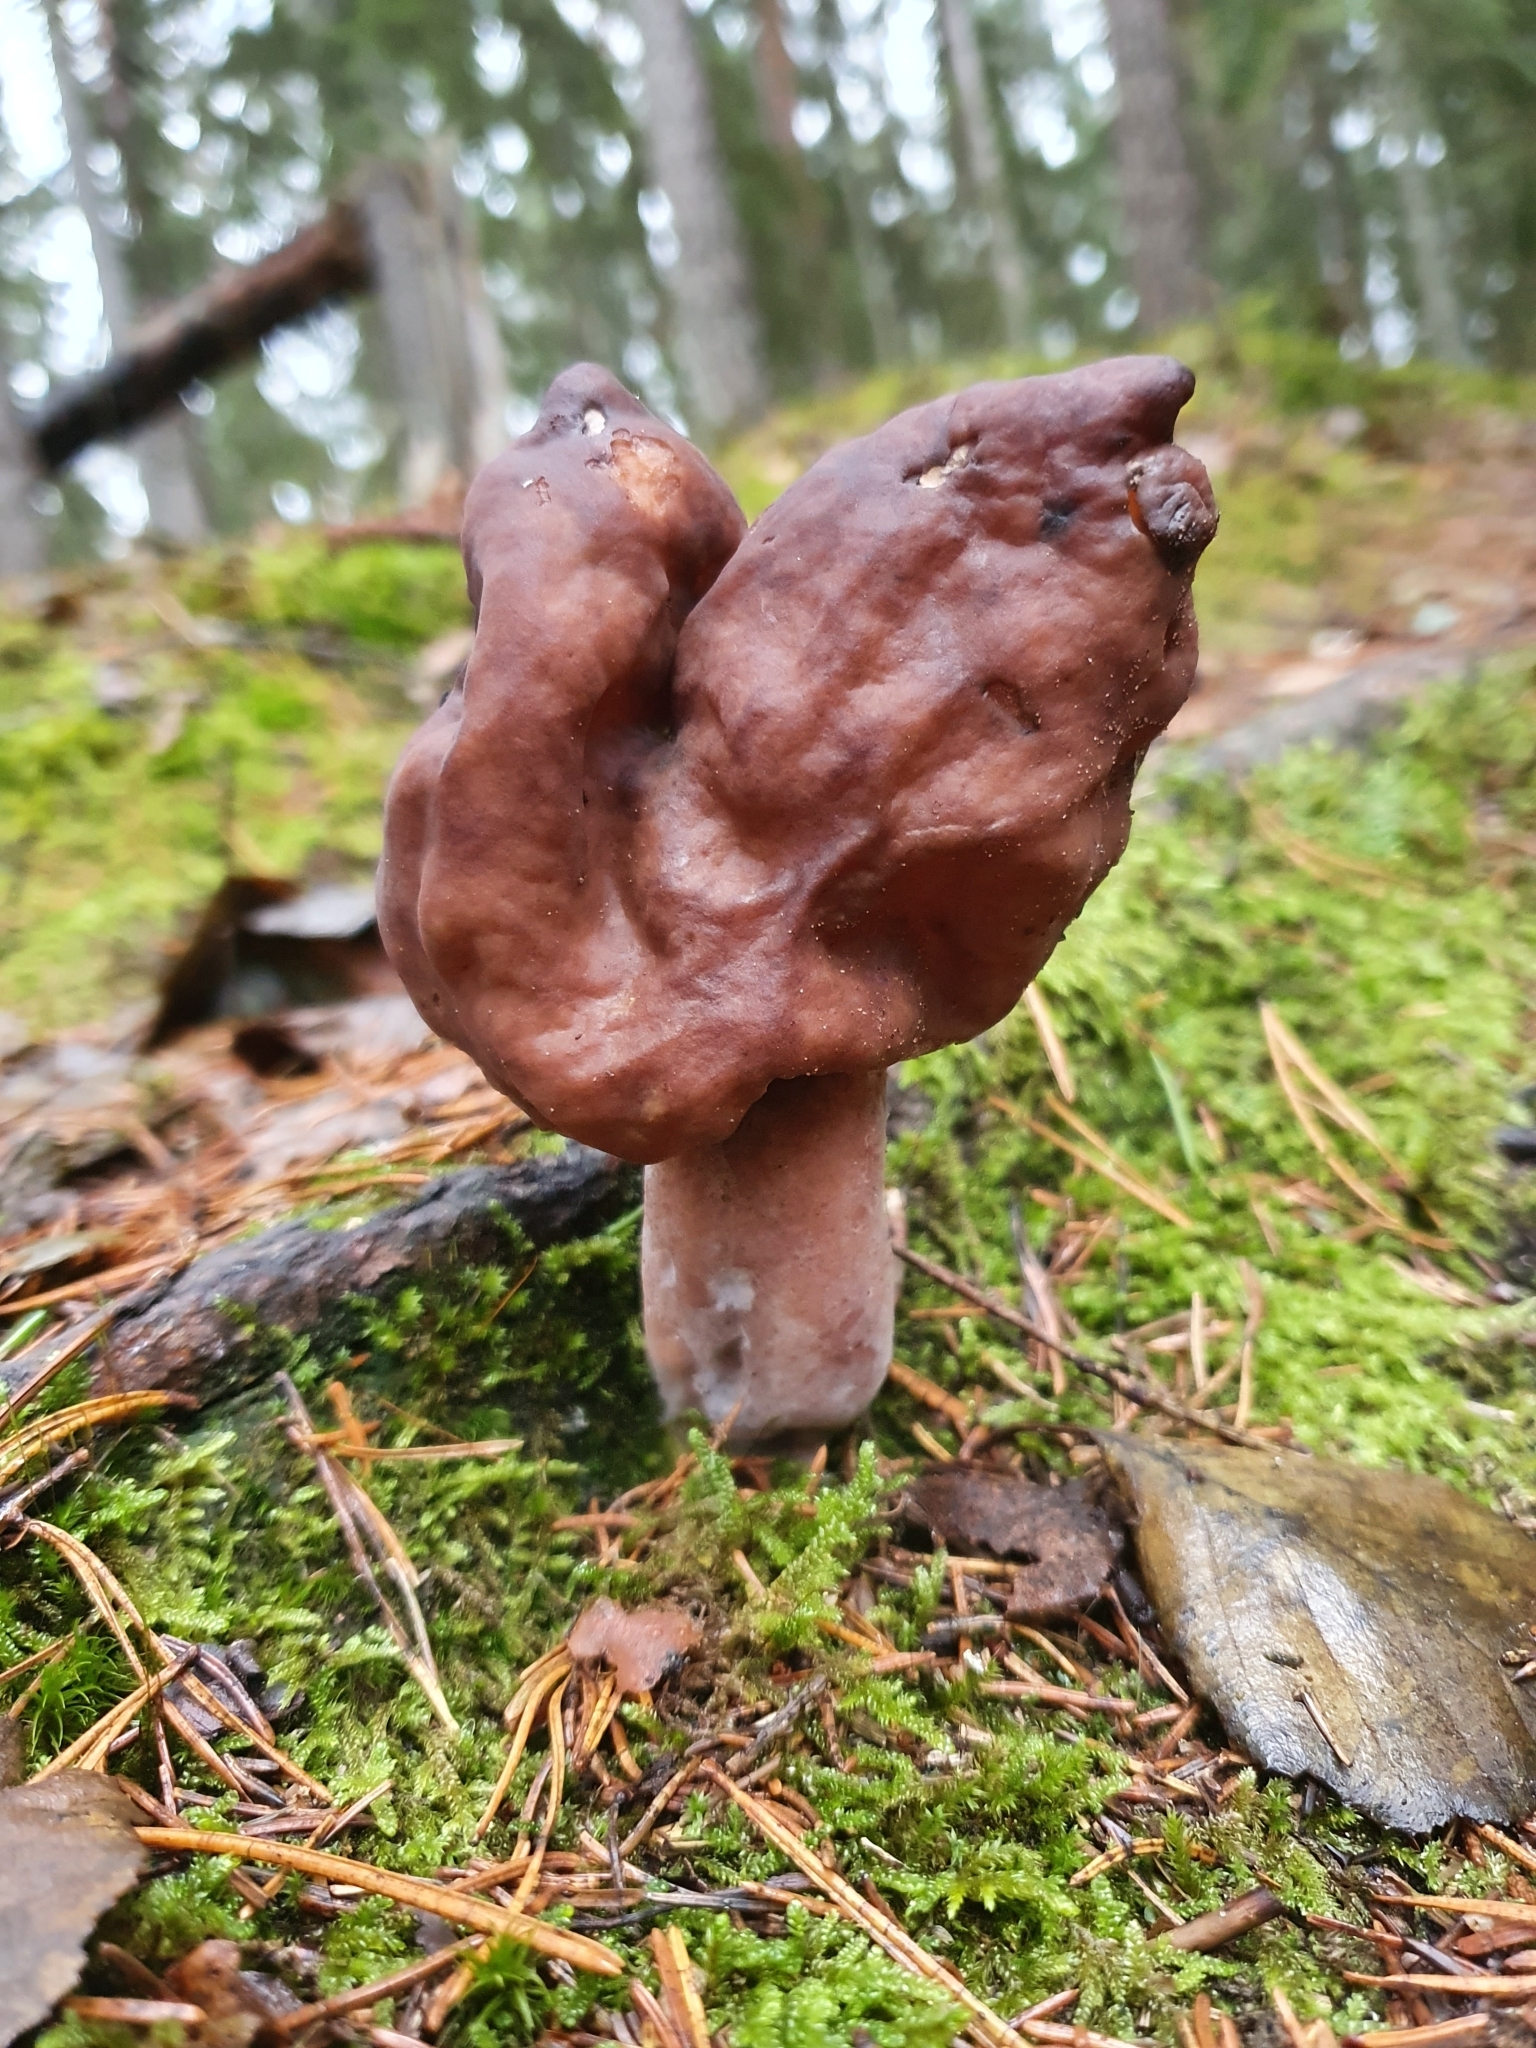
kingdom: Fungi
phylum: Ascomycota
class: Pezizomycetes
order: Pezizales
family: Discinaceae
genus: Gyromitra
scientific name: Gyromitra infula
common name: Pouched false morel
